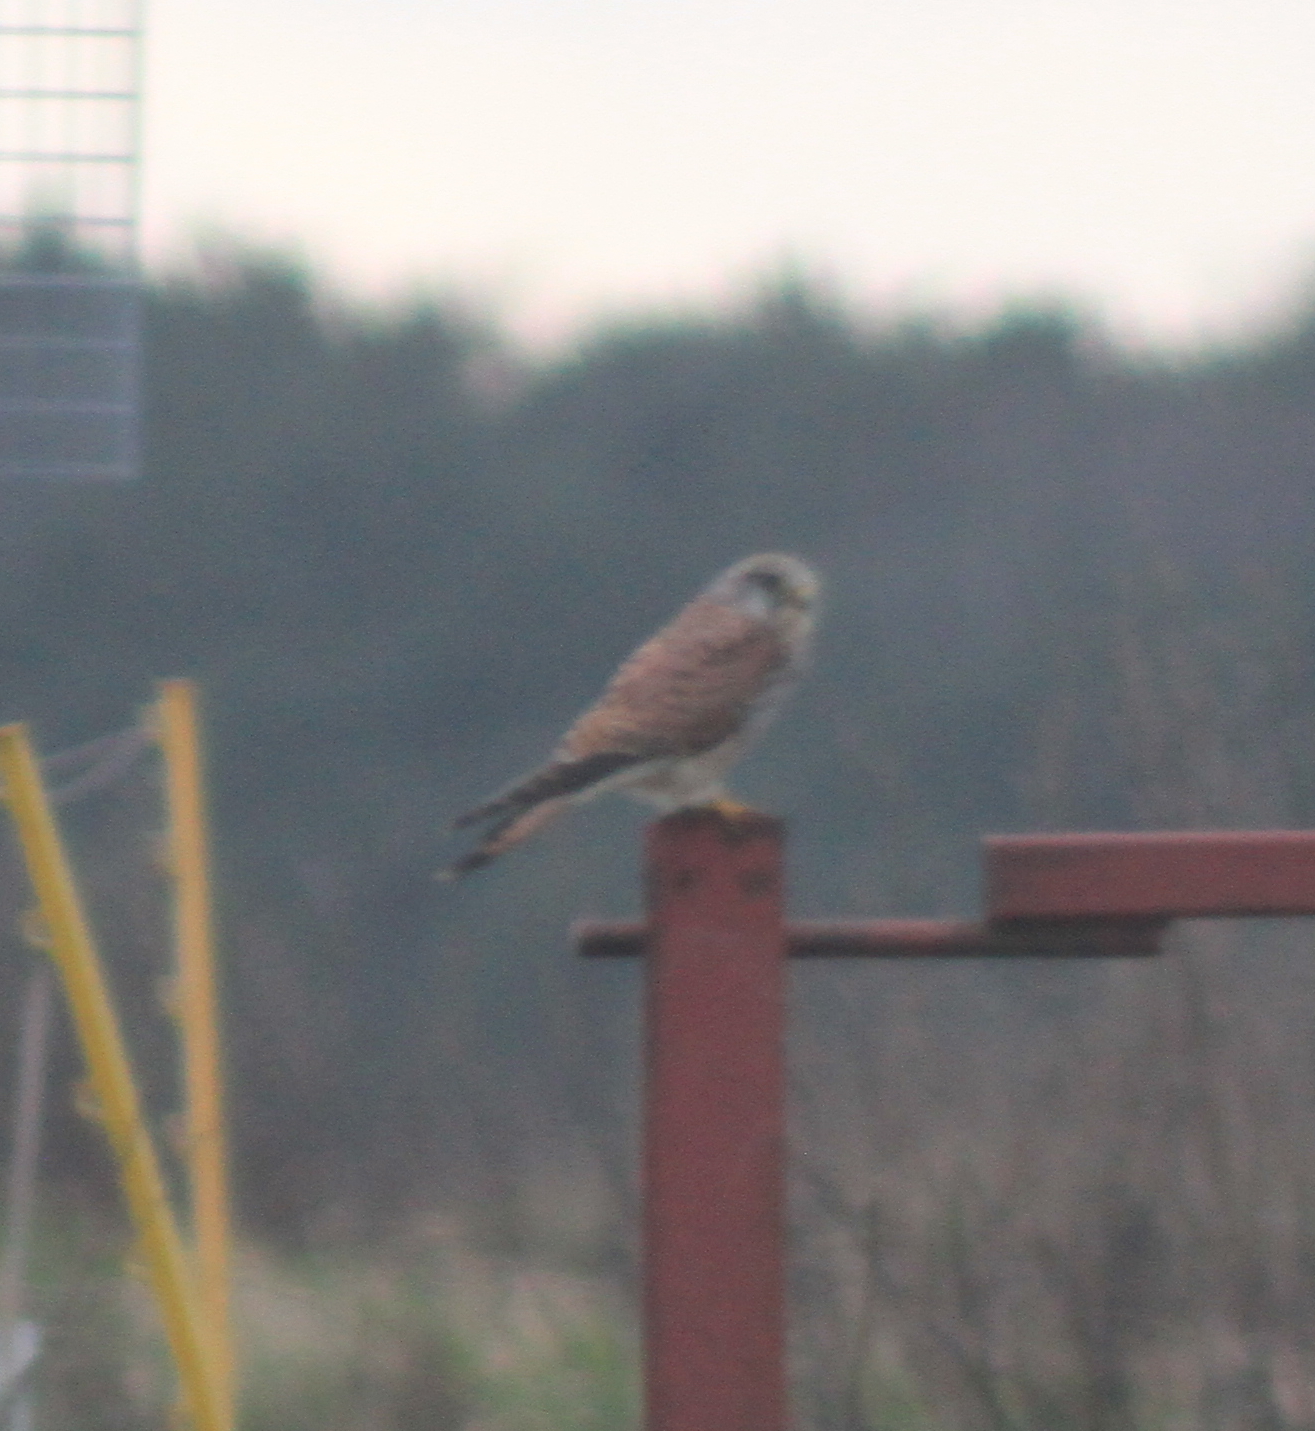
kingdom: Animalia
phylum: Chordata
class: Aves
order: Falconiformes
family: Falconidae
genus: Falco
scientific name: Falco tinnunculus
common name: Common kestrel
